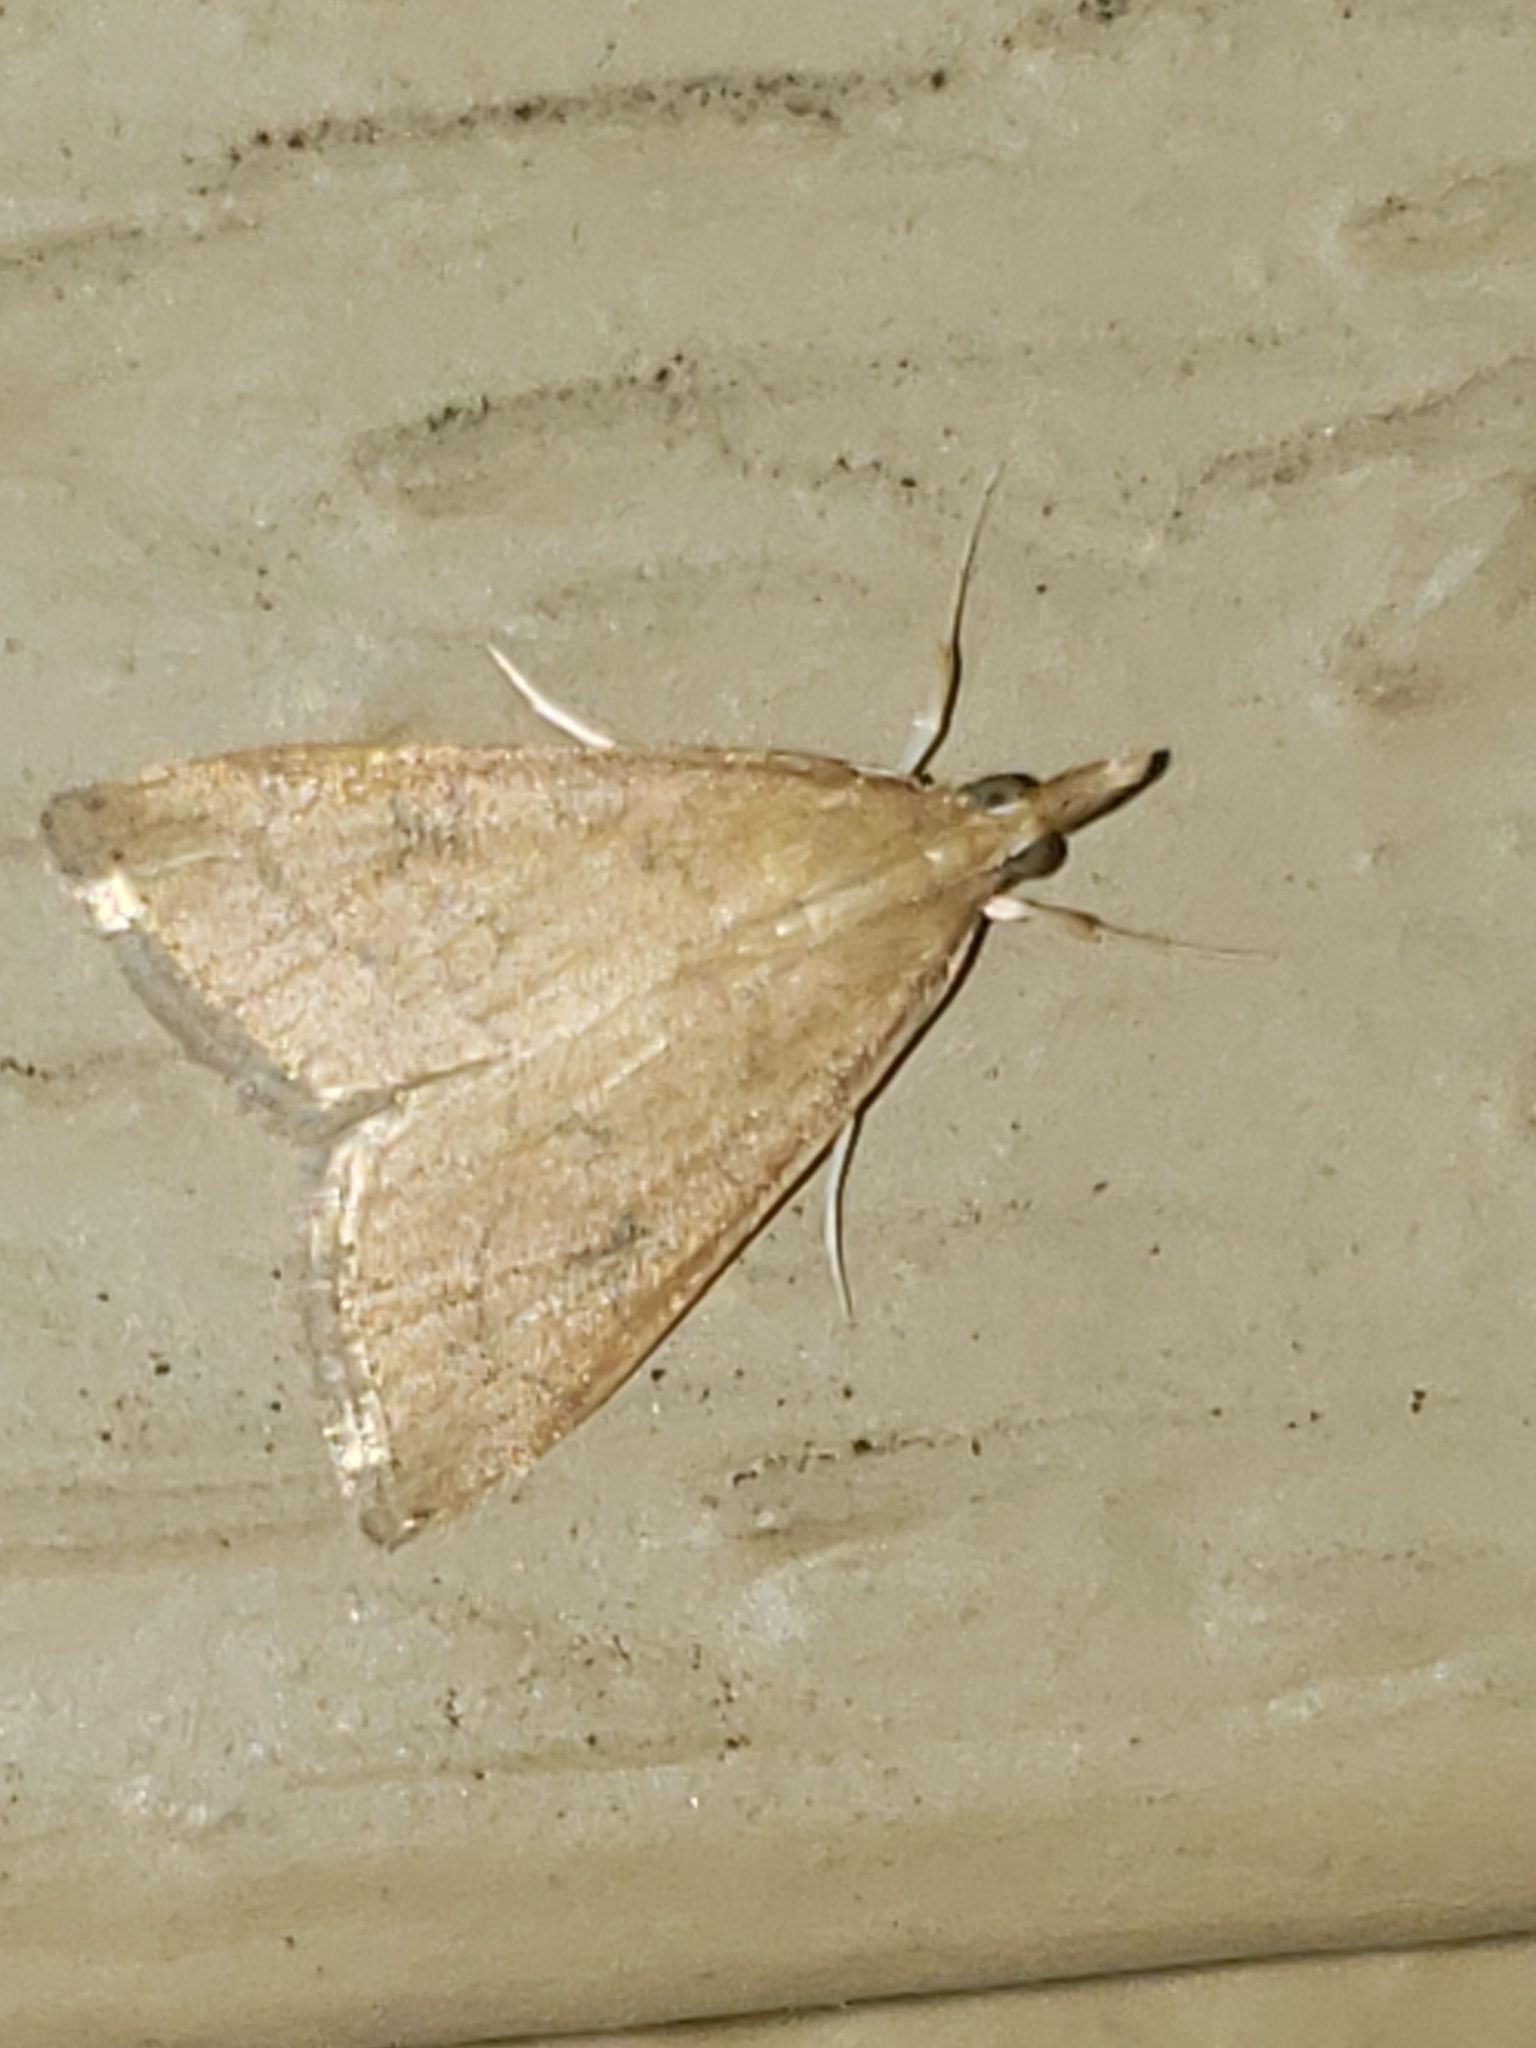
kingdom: Animalia
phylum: Arthropoda
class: Insecta
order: Lepidoptera
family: Crambidae
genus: Udea
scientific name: Udea rubigalis
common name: Celery leaftier moth
